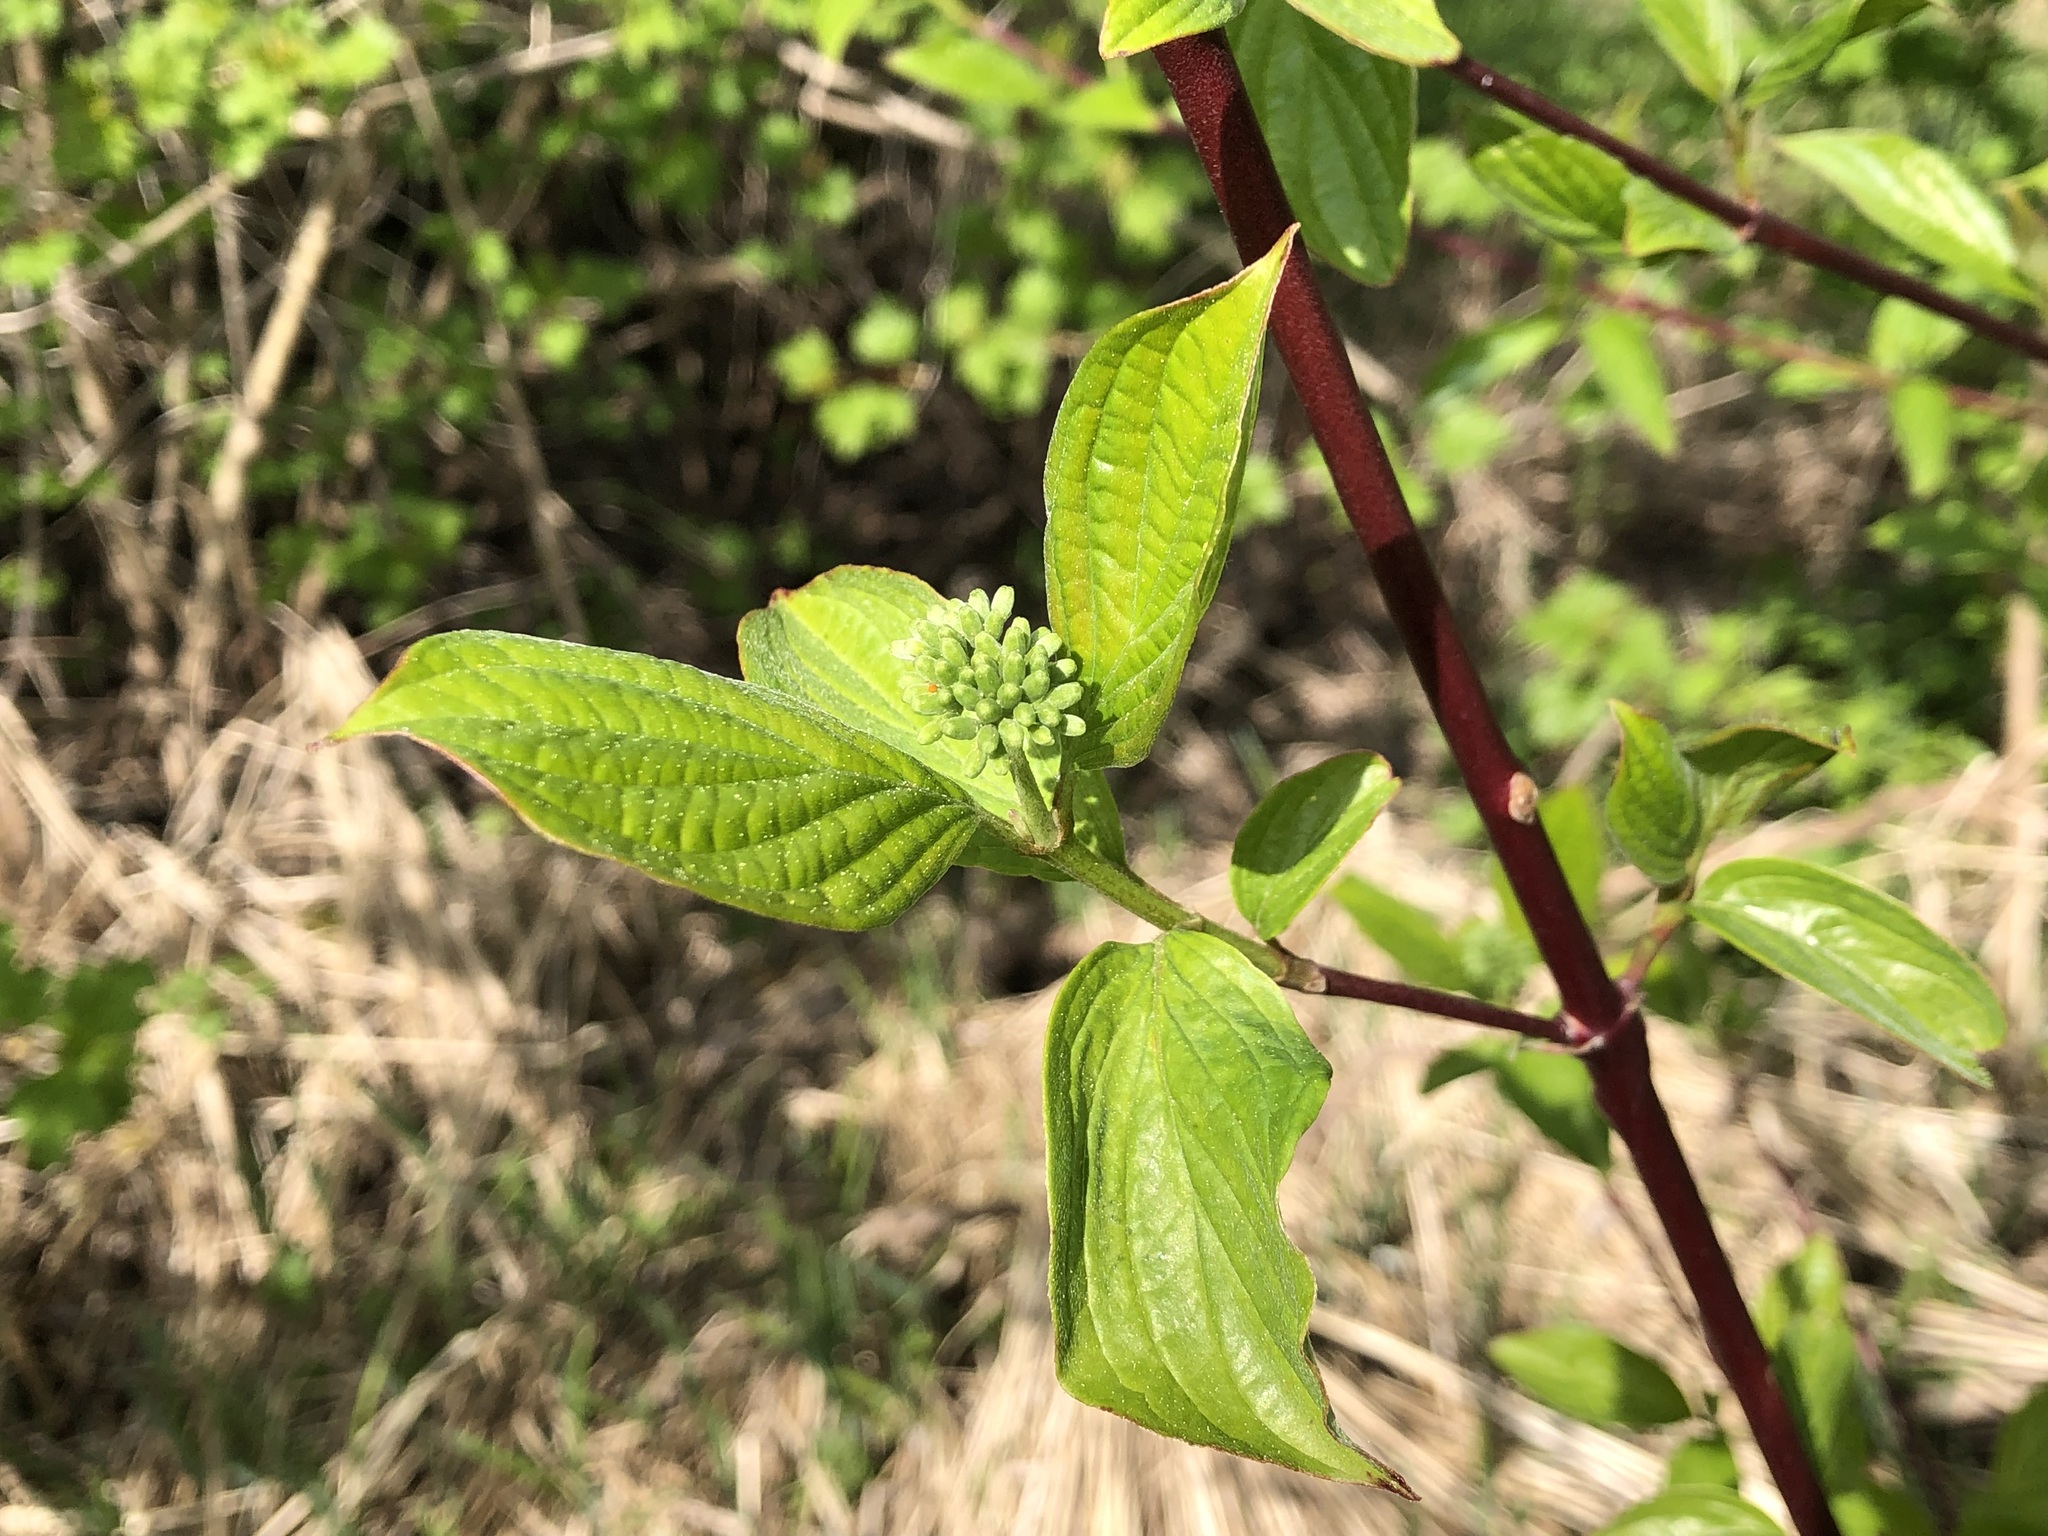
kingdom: Plantae
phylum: Tracheophyta
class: Magnoliopsida
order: Cornales
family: Cornaceae
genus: Cornus
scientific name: Cornus sanguinea
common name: Dogwood
